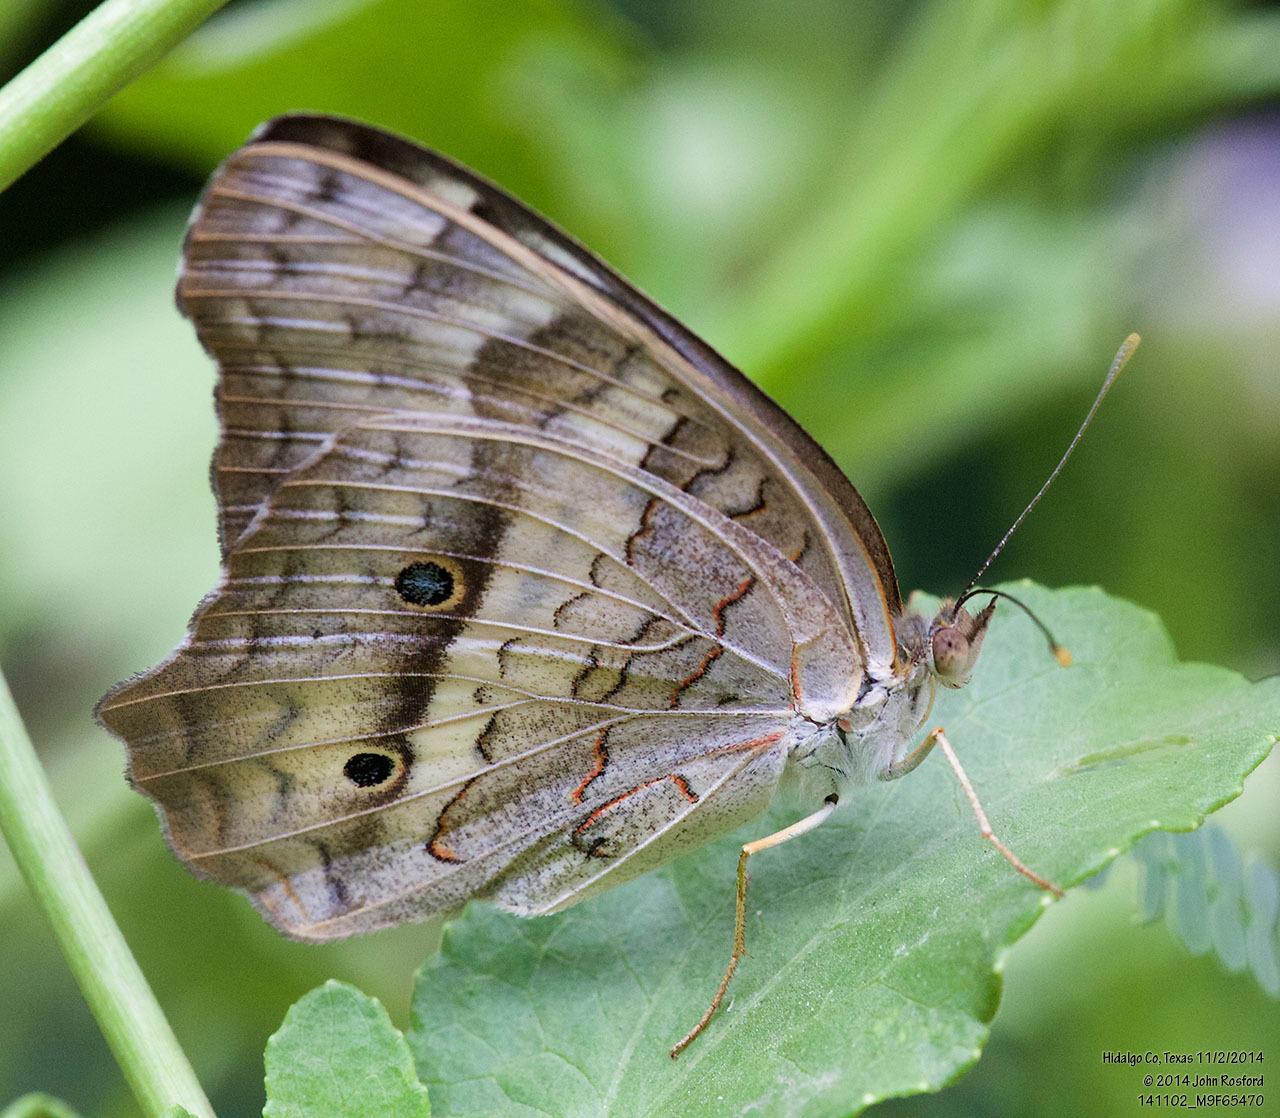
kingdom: Animalia
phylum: Arthropoda
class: Insecta
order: Lepidoptera
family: Nymphalidae
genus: Anartia
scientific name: Anartia jatrophae
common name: White peacock
